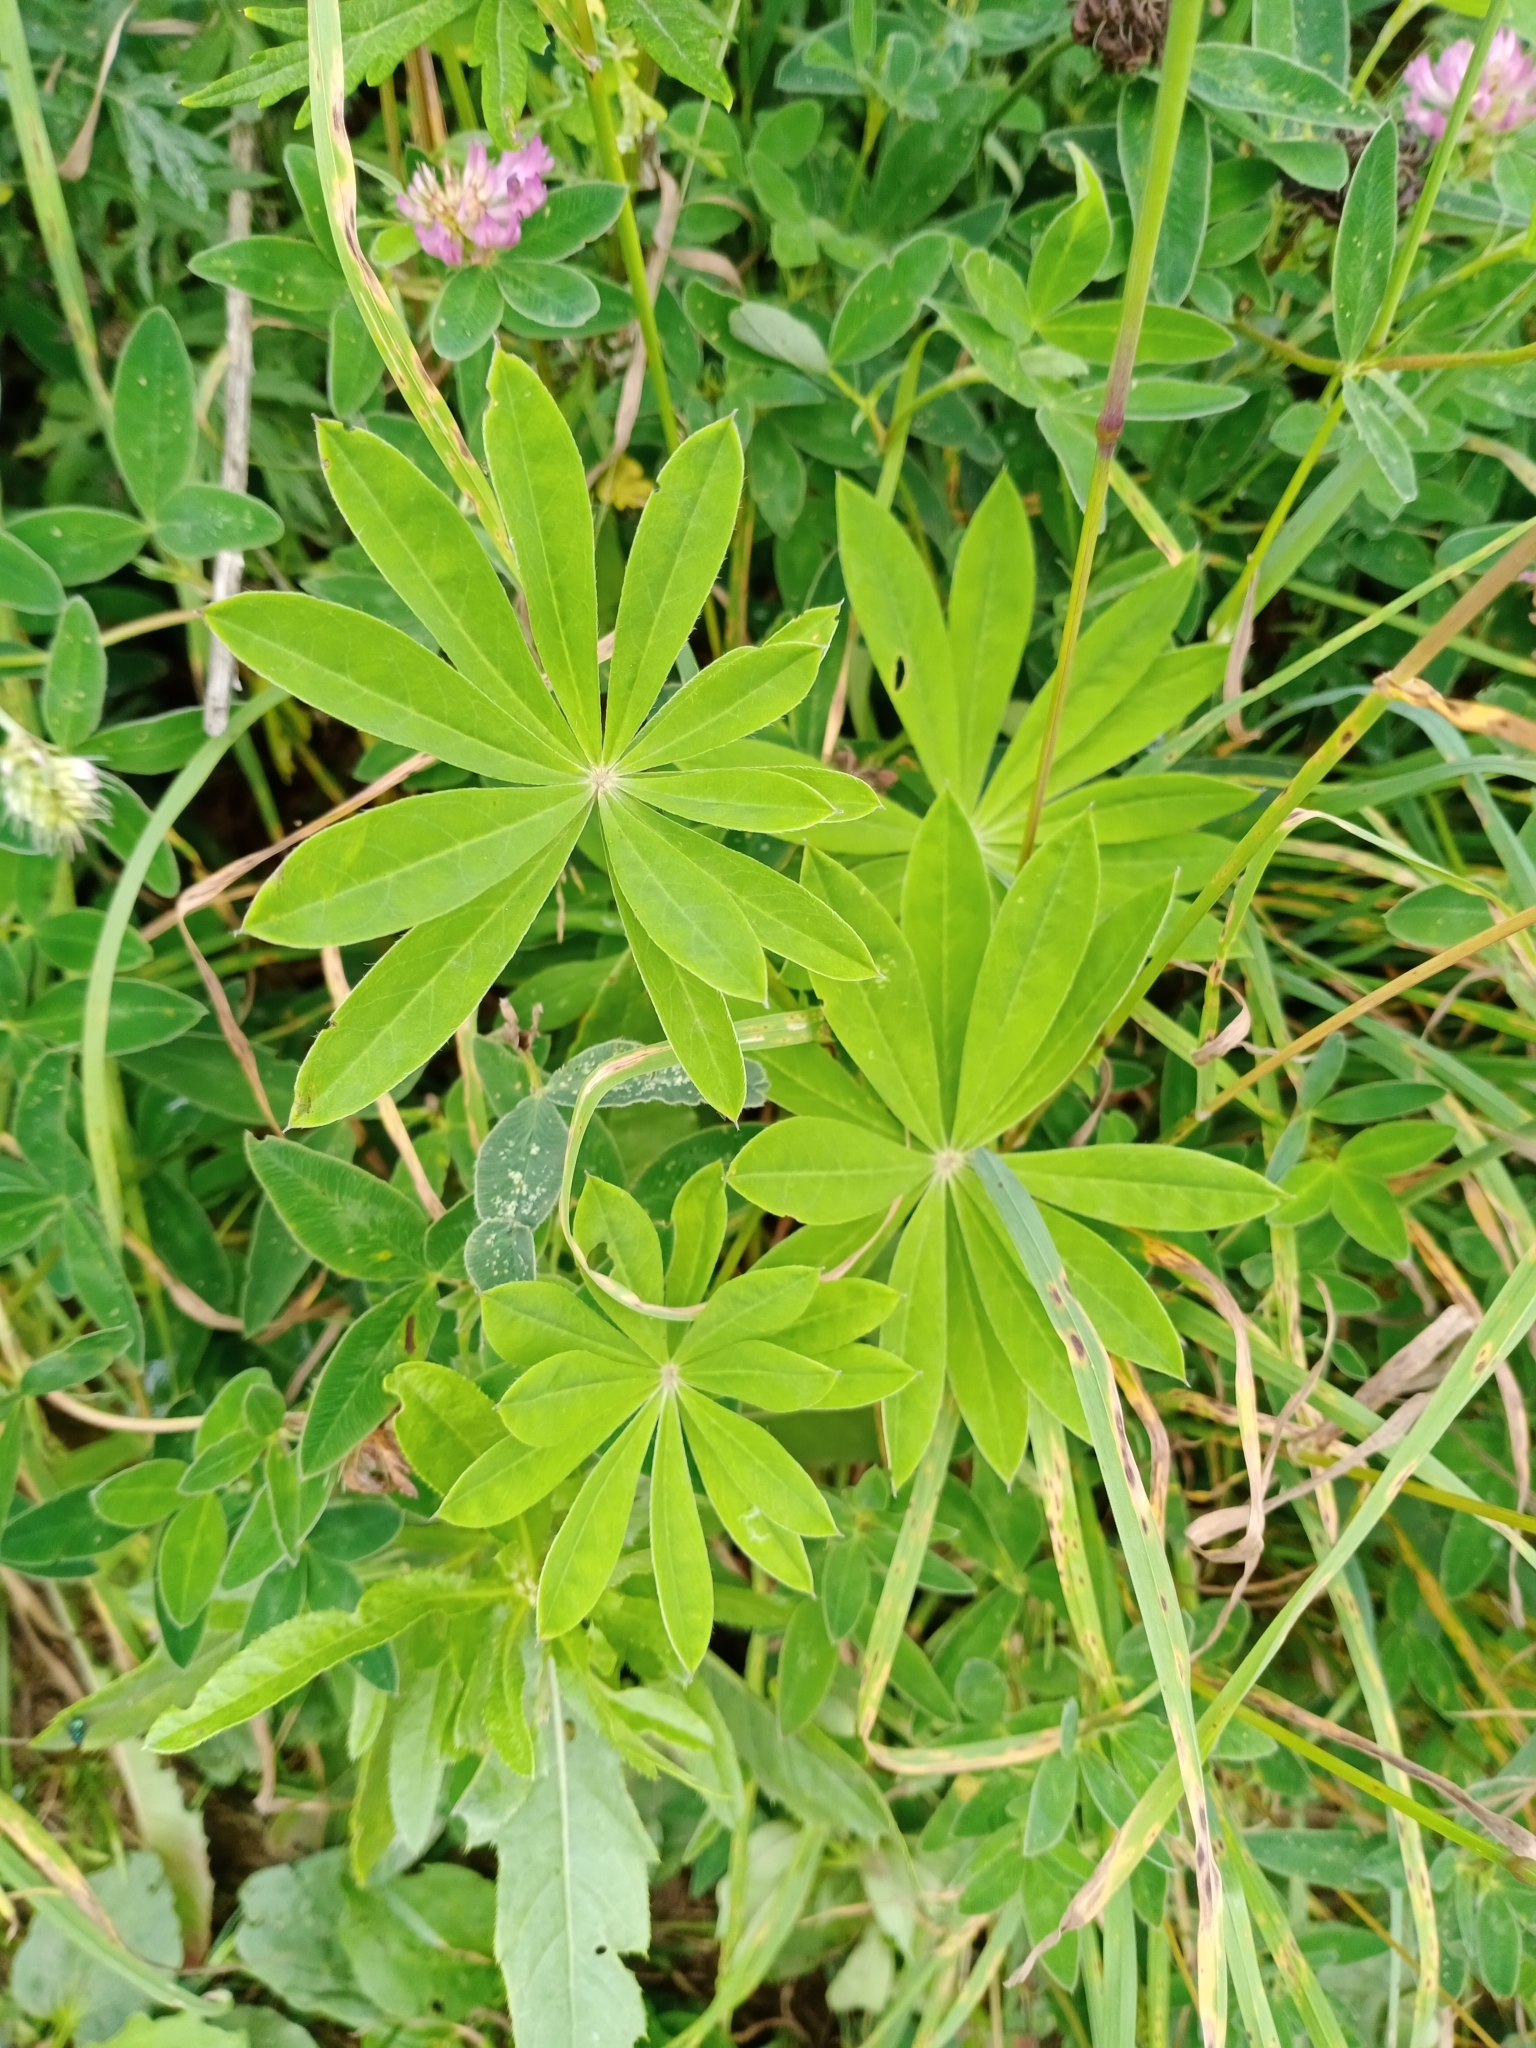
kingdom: Plantae
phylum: Tracheophyta
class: Magnoliopsida
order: Fabales
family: Fabaceae
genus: Lupinus
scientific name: Lupinus polyphyllus
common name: Garden lupin
